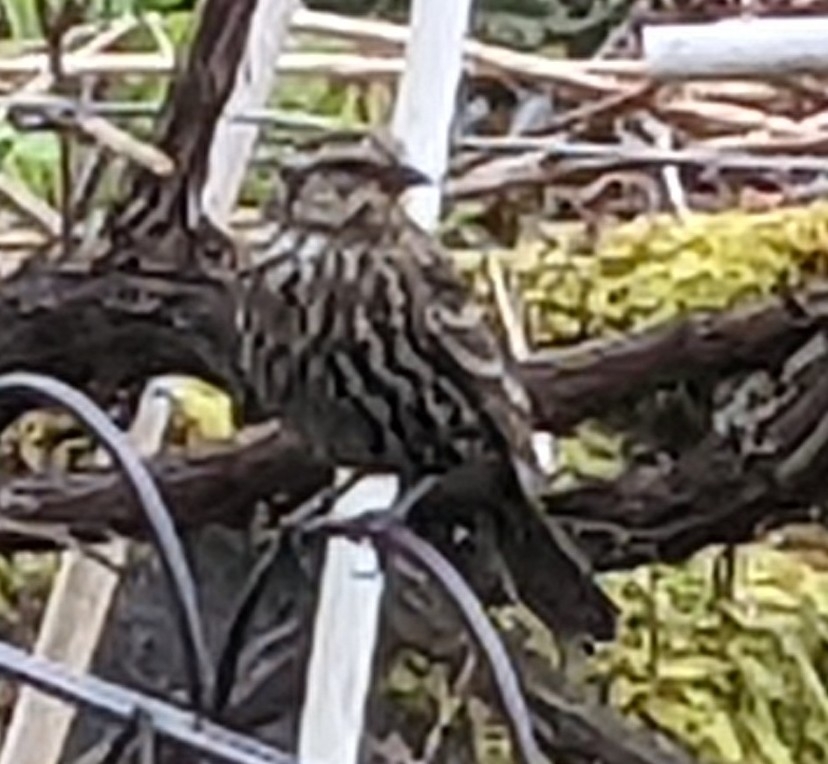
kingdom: Animalia
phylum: Chordata
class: Aves
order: Passeriformes
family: Icteridae
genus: Agelaius
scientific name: Agelaius phoeniceus
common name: Red-winged blackbird
